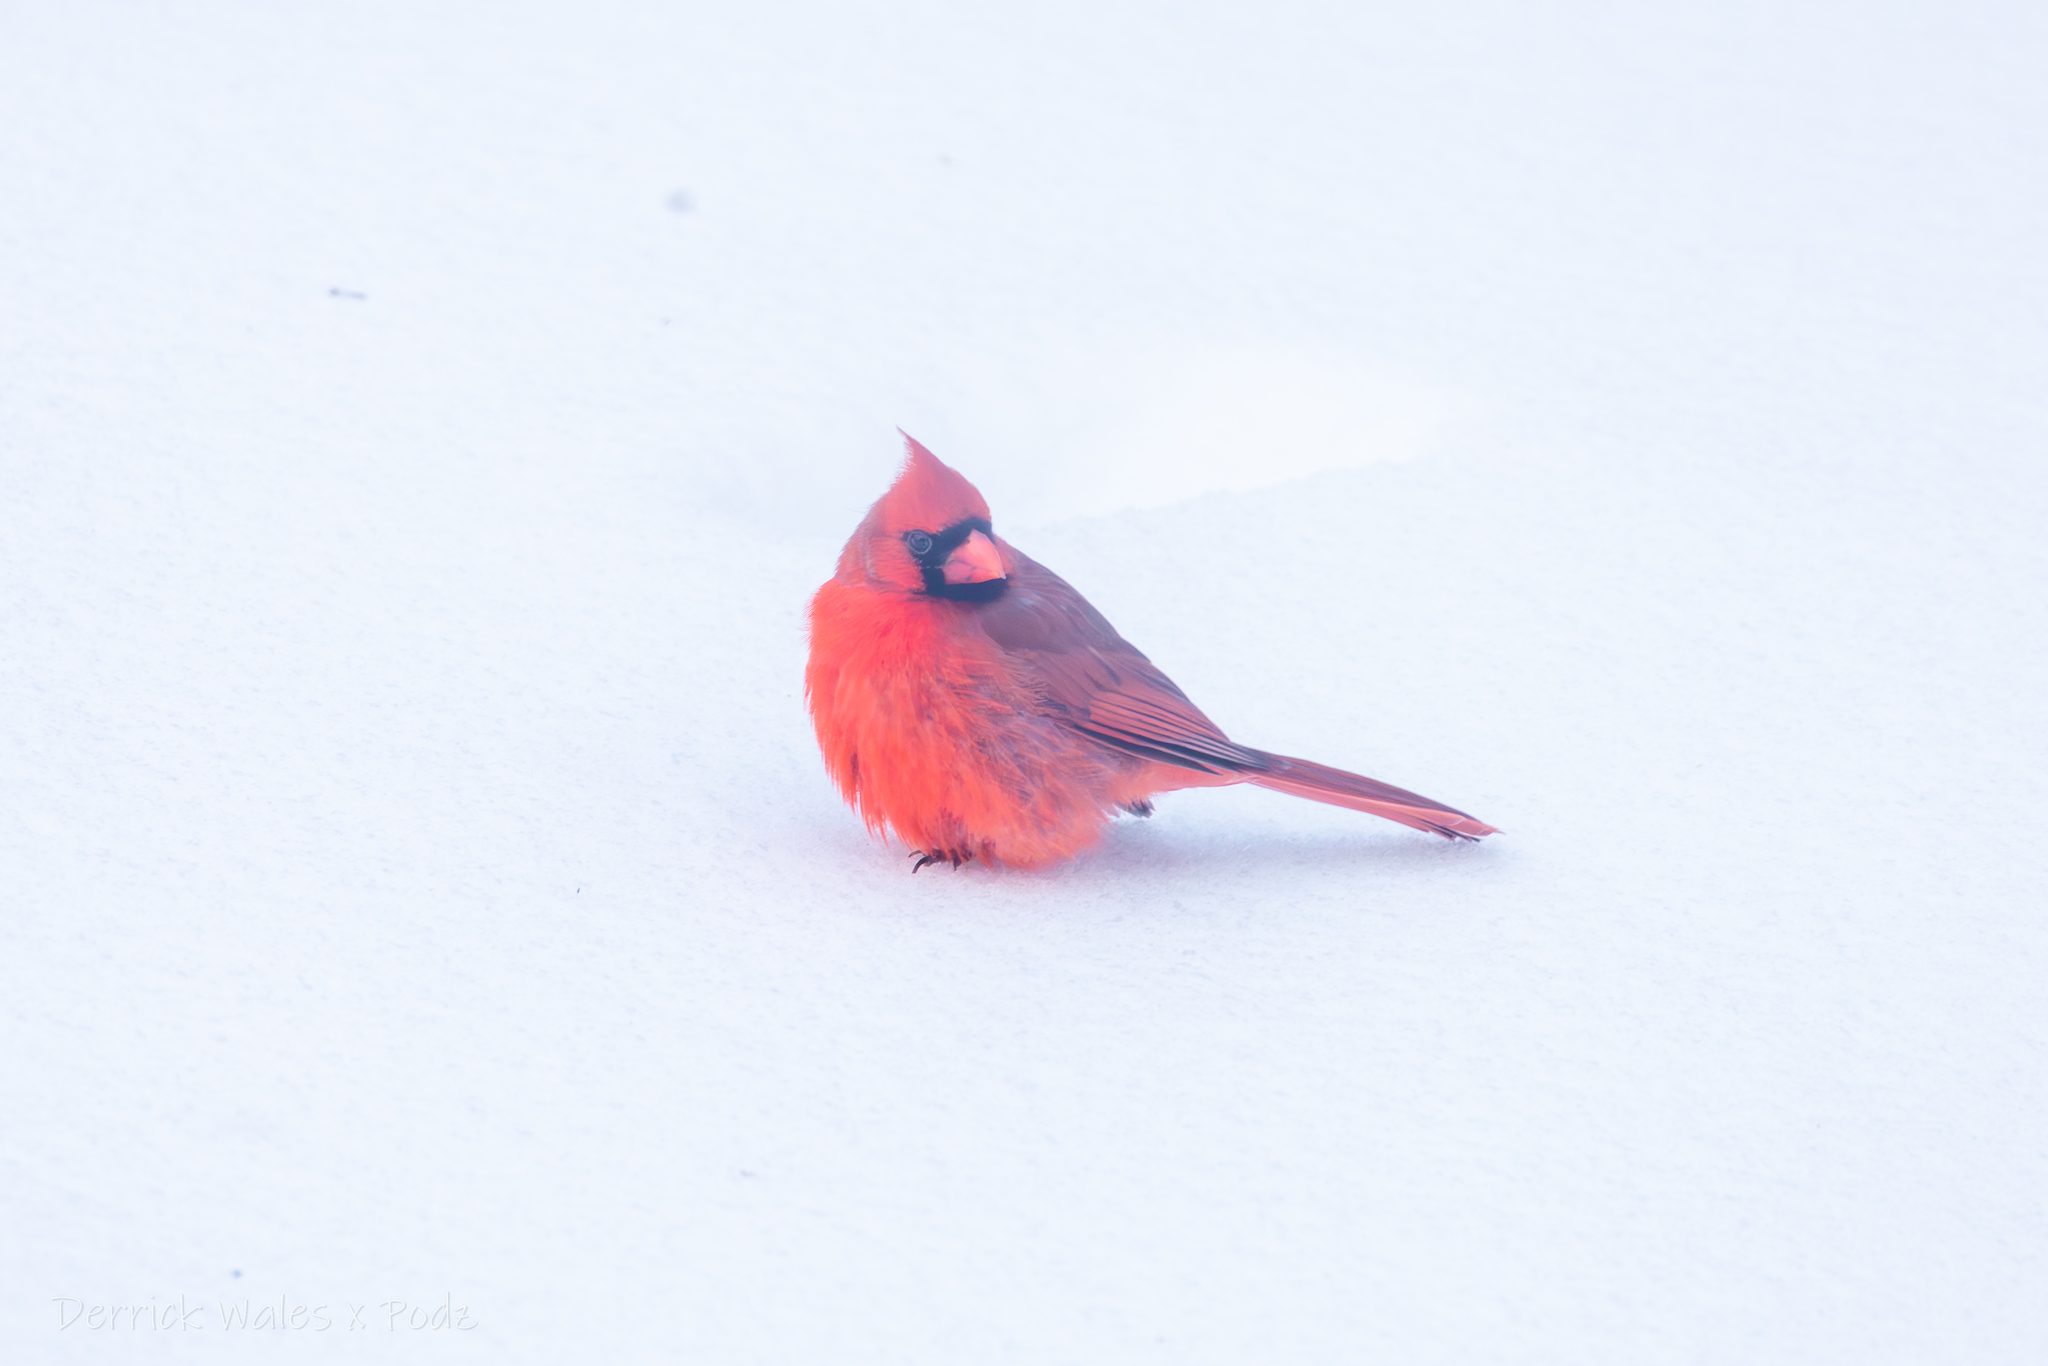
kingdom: Animalia
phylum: Chordata
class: Aves
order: Passeriformes
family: Cardinalidae
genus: Cardinalis
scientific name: Cardinalis cardinalis
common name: Northern cardinal
